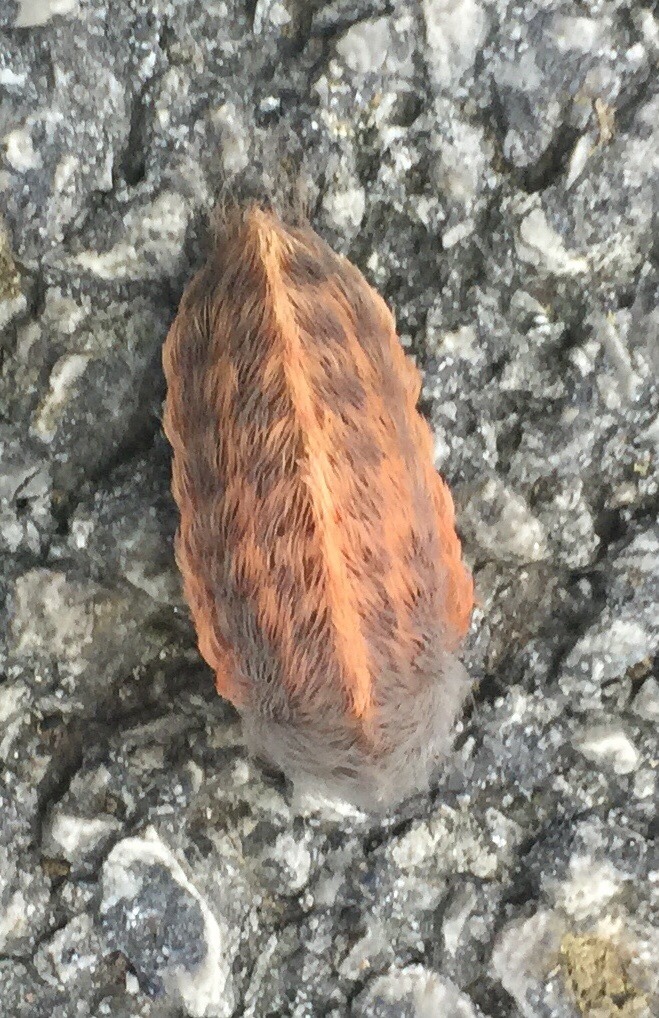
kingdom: Animalia
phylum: Arthropoda
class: Insecta
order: Lepidoptera
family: Megalopygidae
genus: Megalopyge
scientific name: Megalopyge crispata
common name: Black-waved flannel moth
